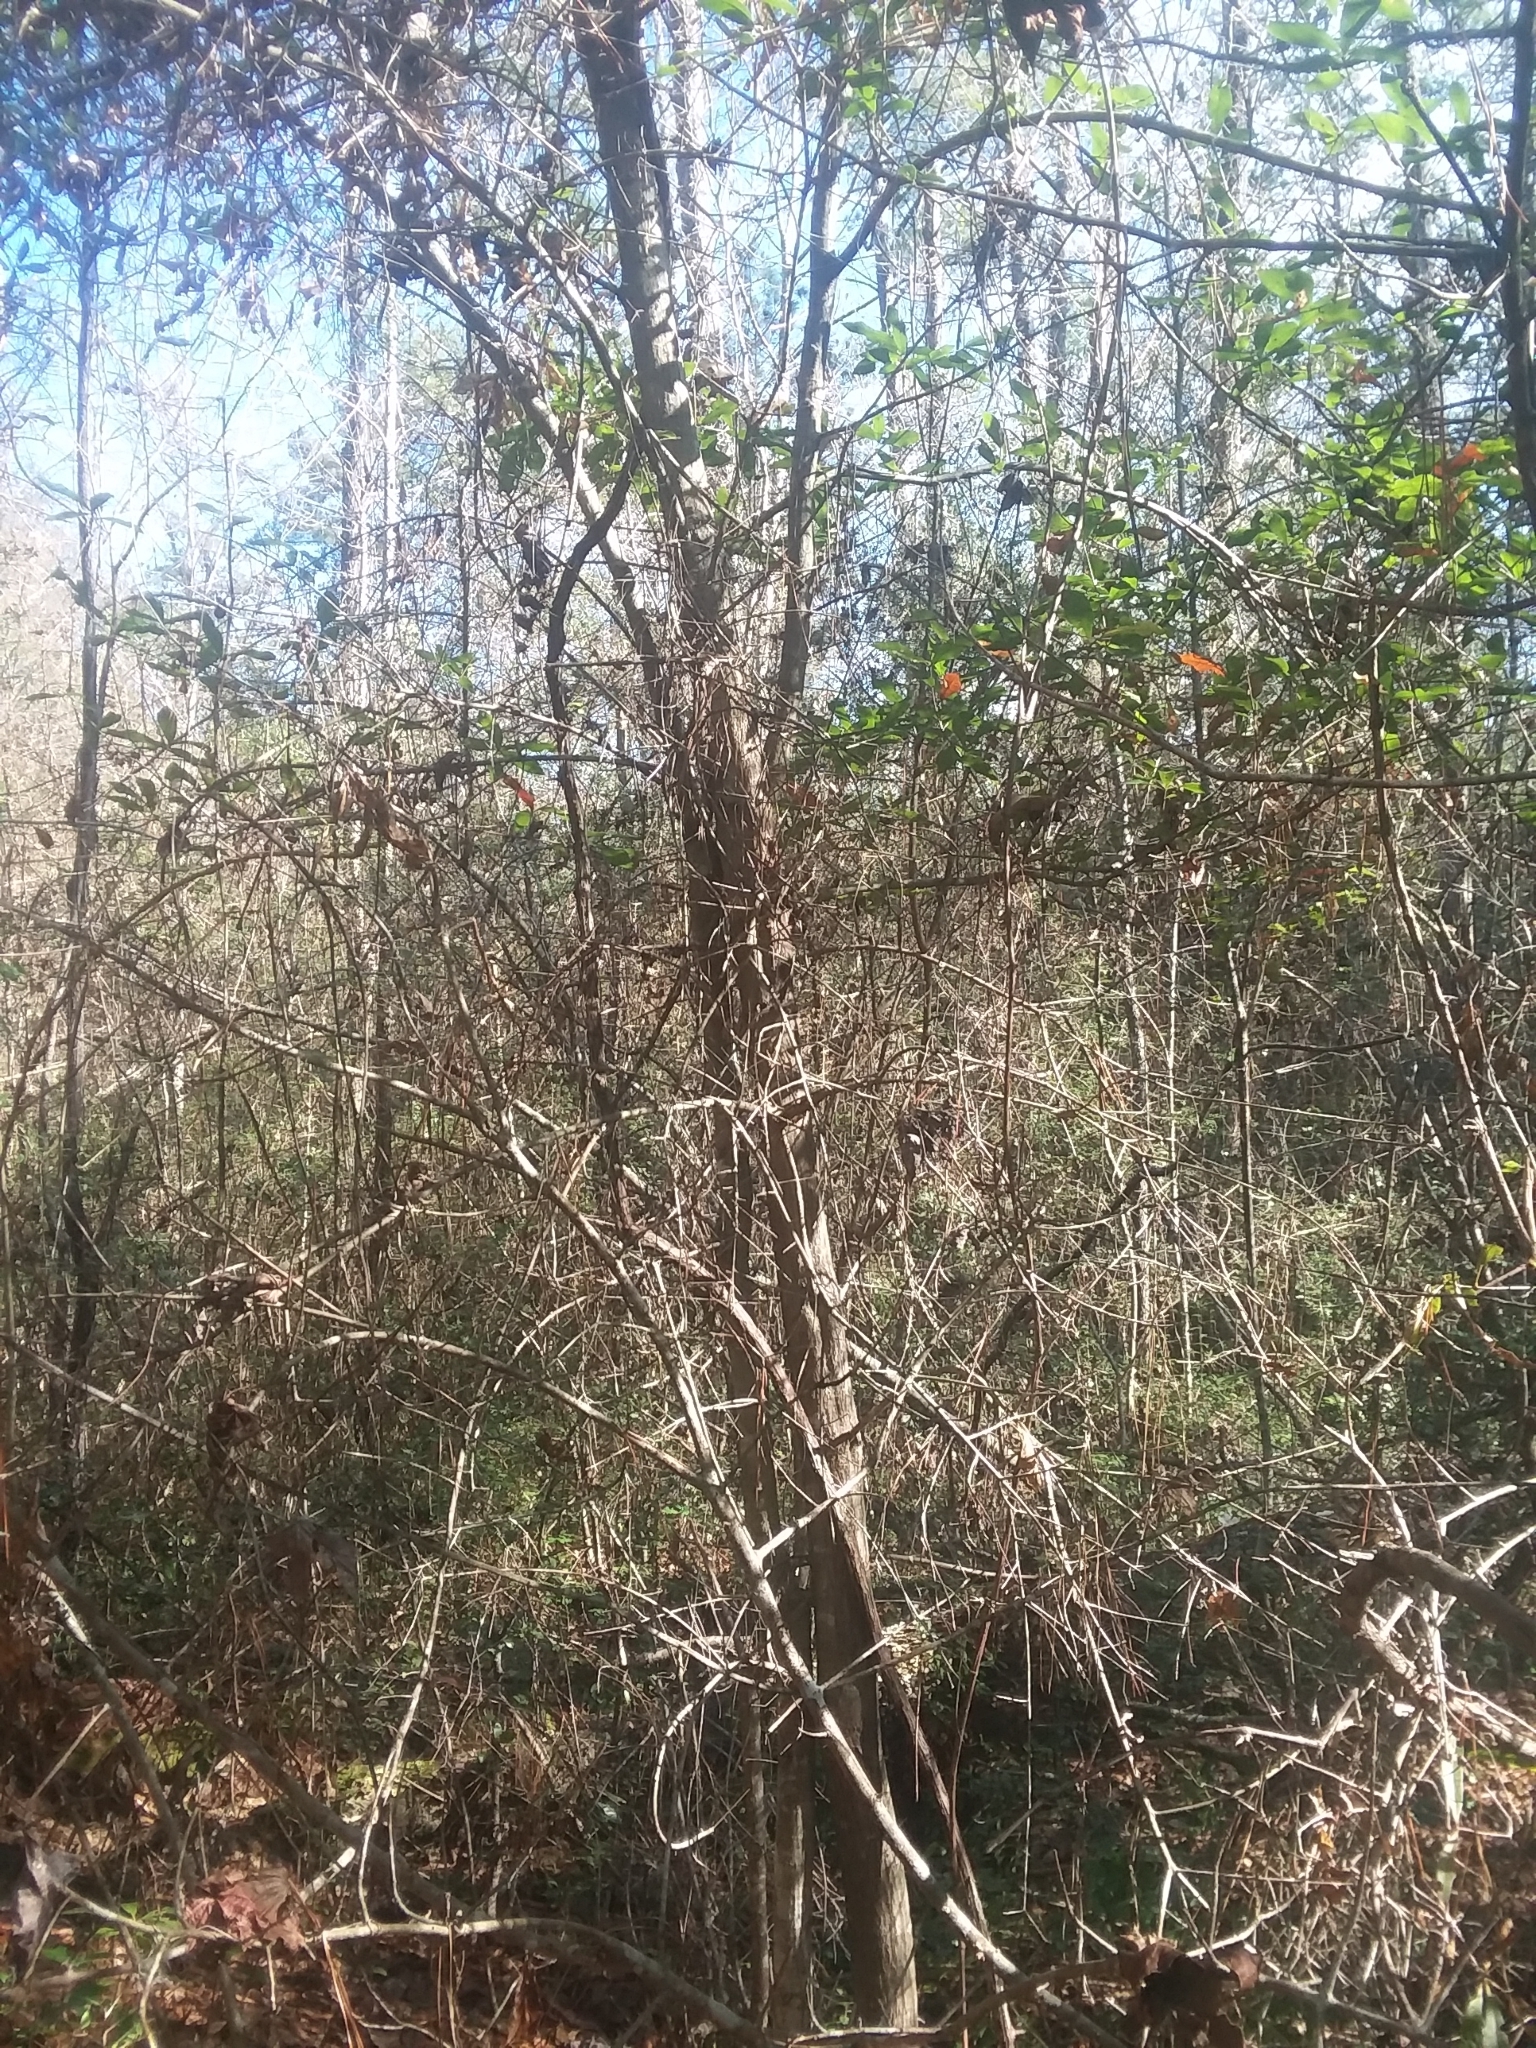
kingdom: Plantae
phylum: Tracheophyta
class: Magnoliopsida
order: Fagales
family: Fagaceae
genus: Quercus
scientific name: Quercus hemisphaerica
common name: Darlington oak
